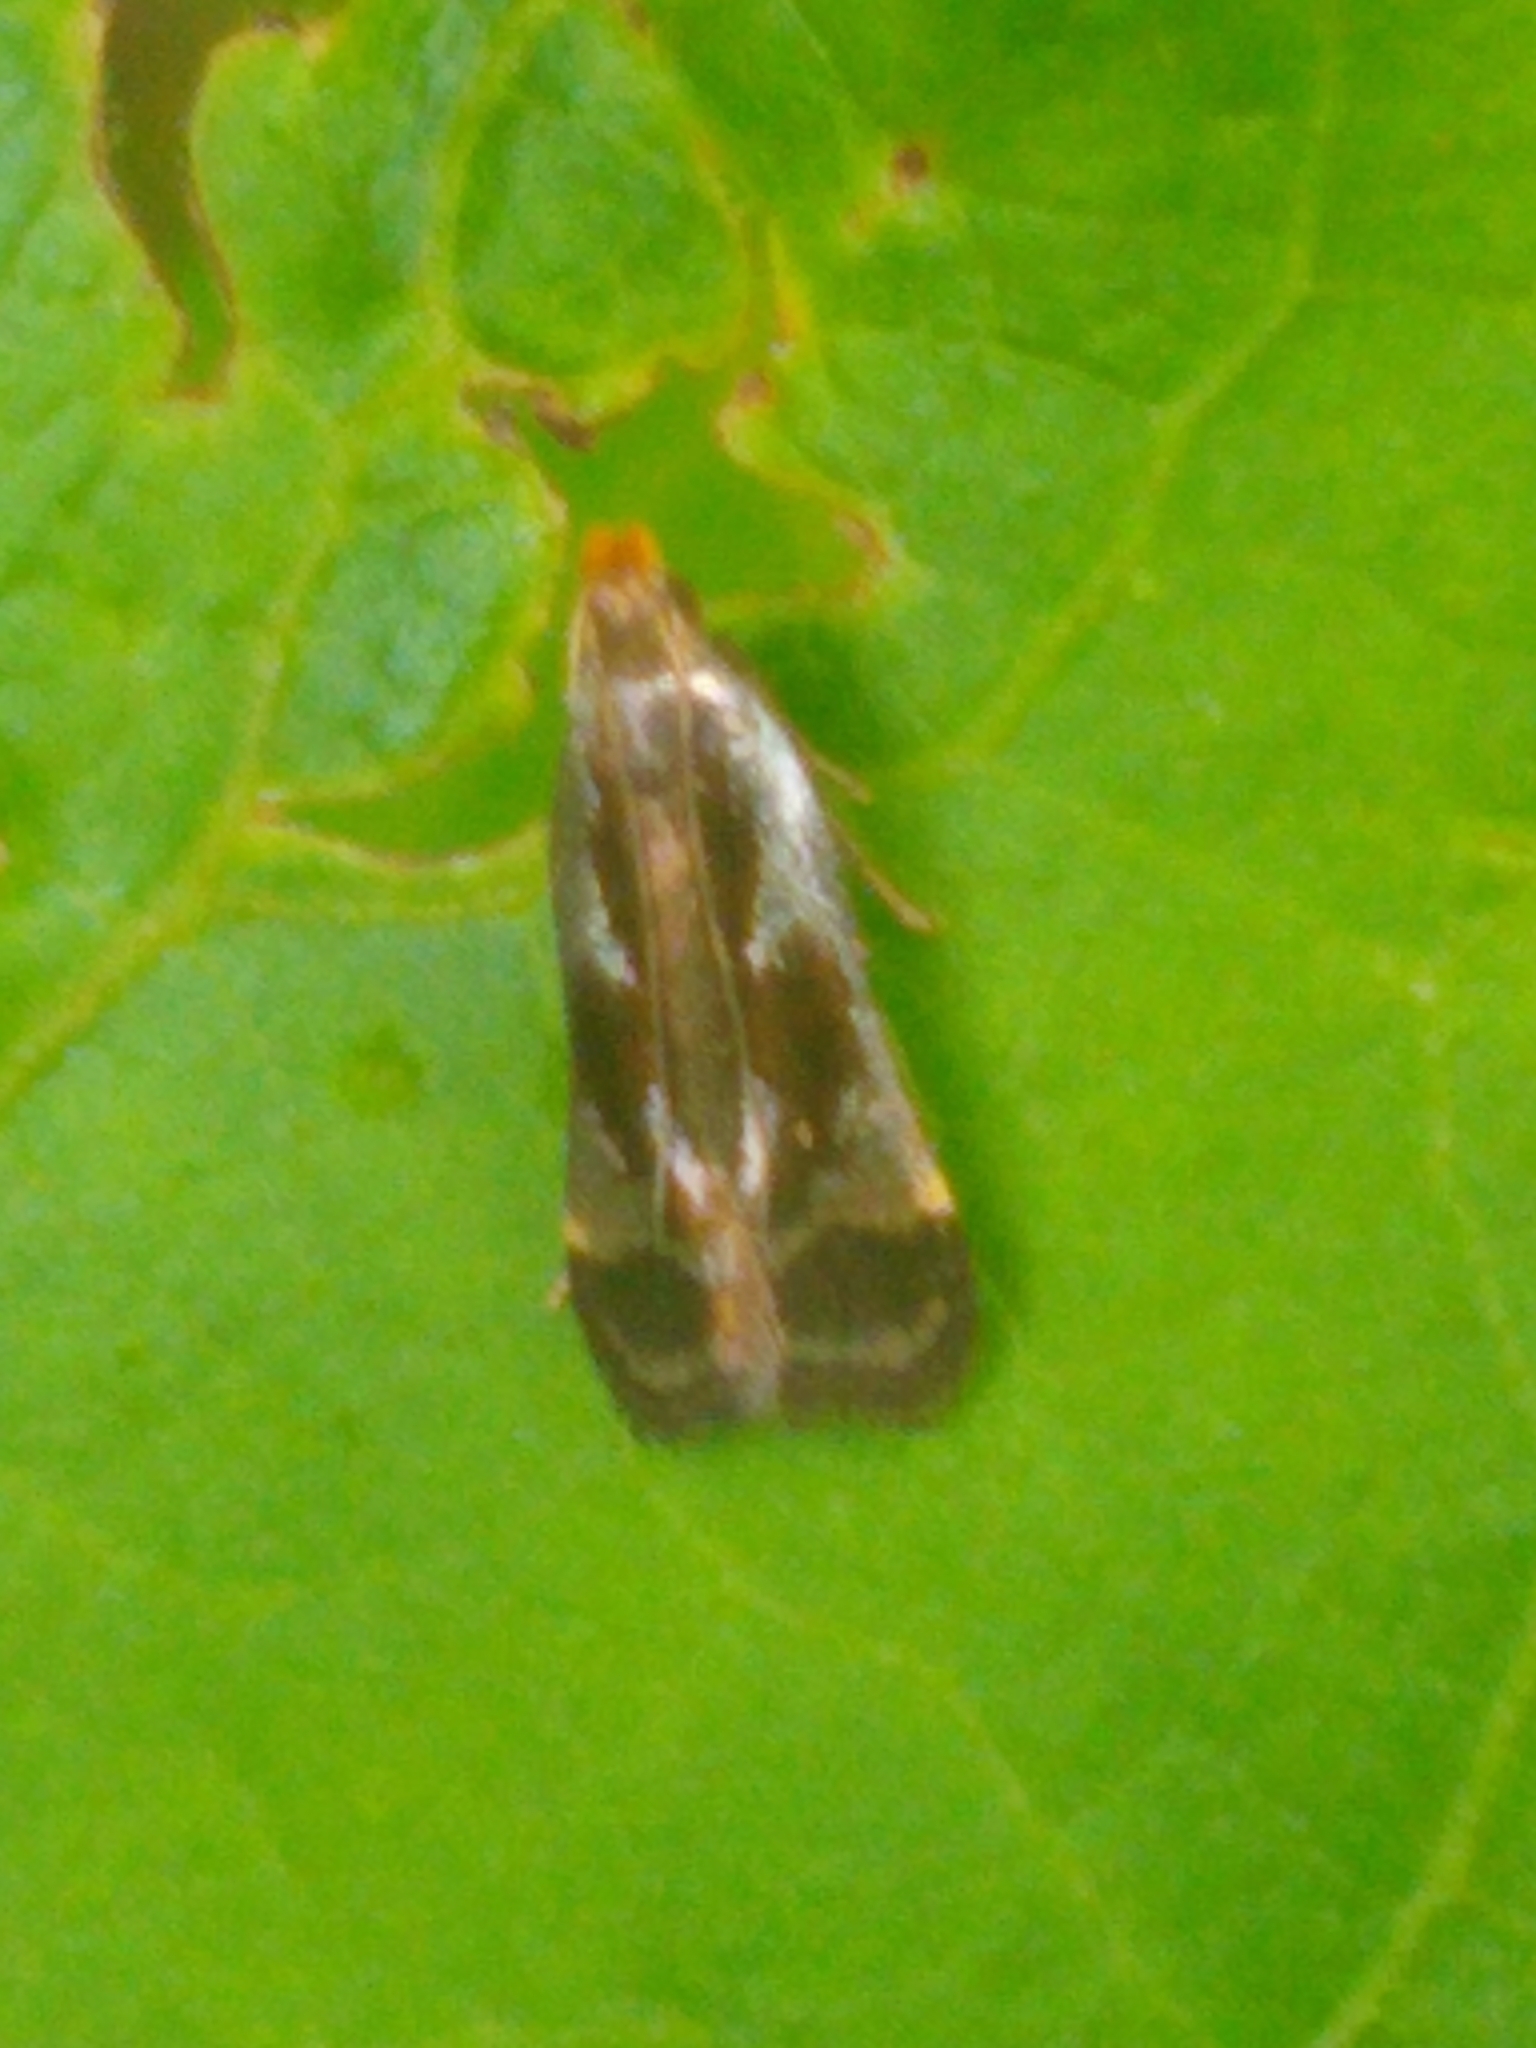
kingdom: Animalia
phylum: Arthropoda
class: Insecta
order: Lepidoptera
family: Gelechiidae
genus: Dichomeris
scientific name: Dichomeris ochripalpella
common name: Shining dichomeris moth
